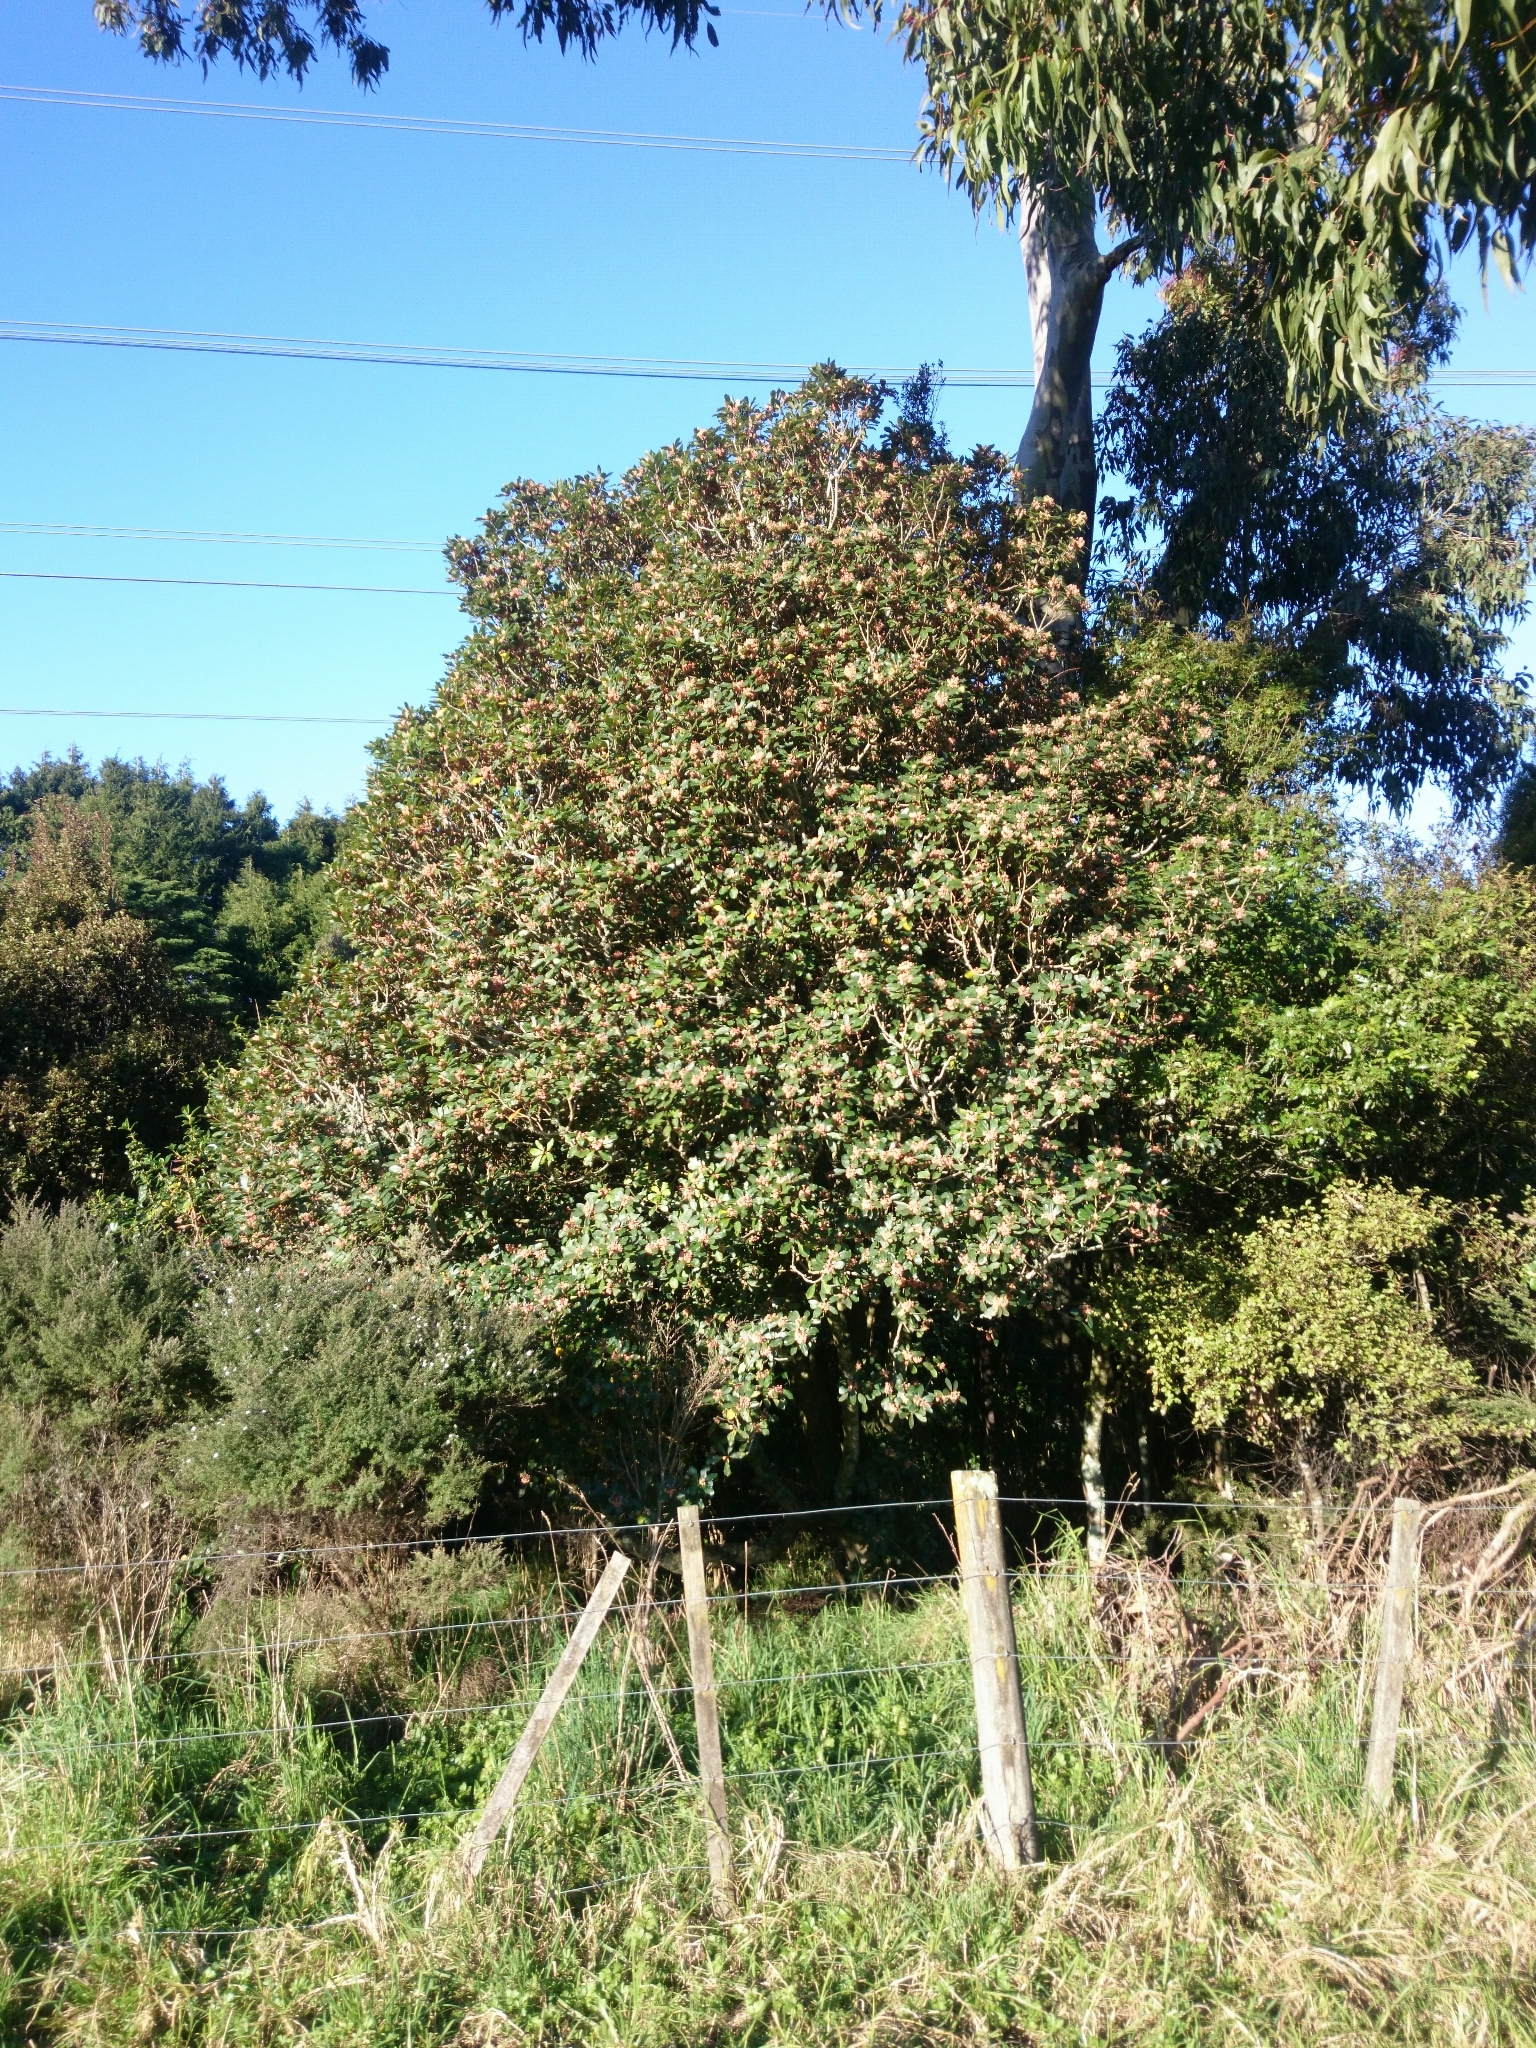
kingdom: Plantae
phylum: Tracheophyta
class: Magnoliopsida
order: Apiales
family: Pittosporaceae
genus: Pittosporum
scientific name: Pittosporum umbellatum
